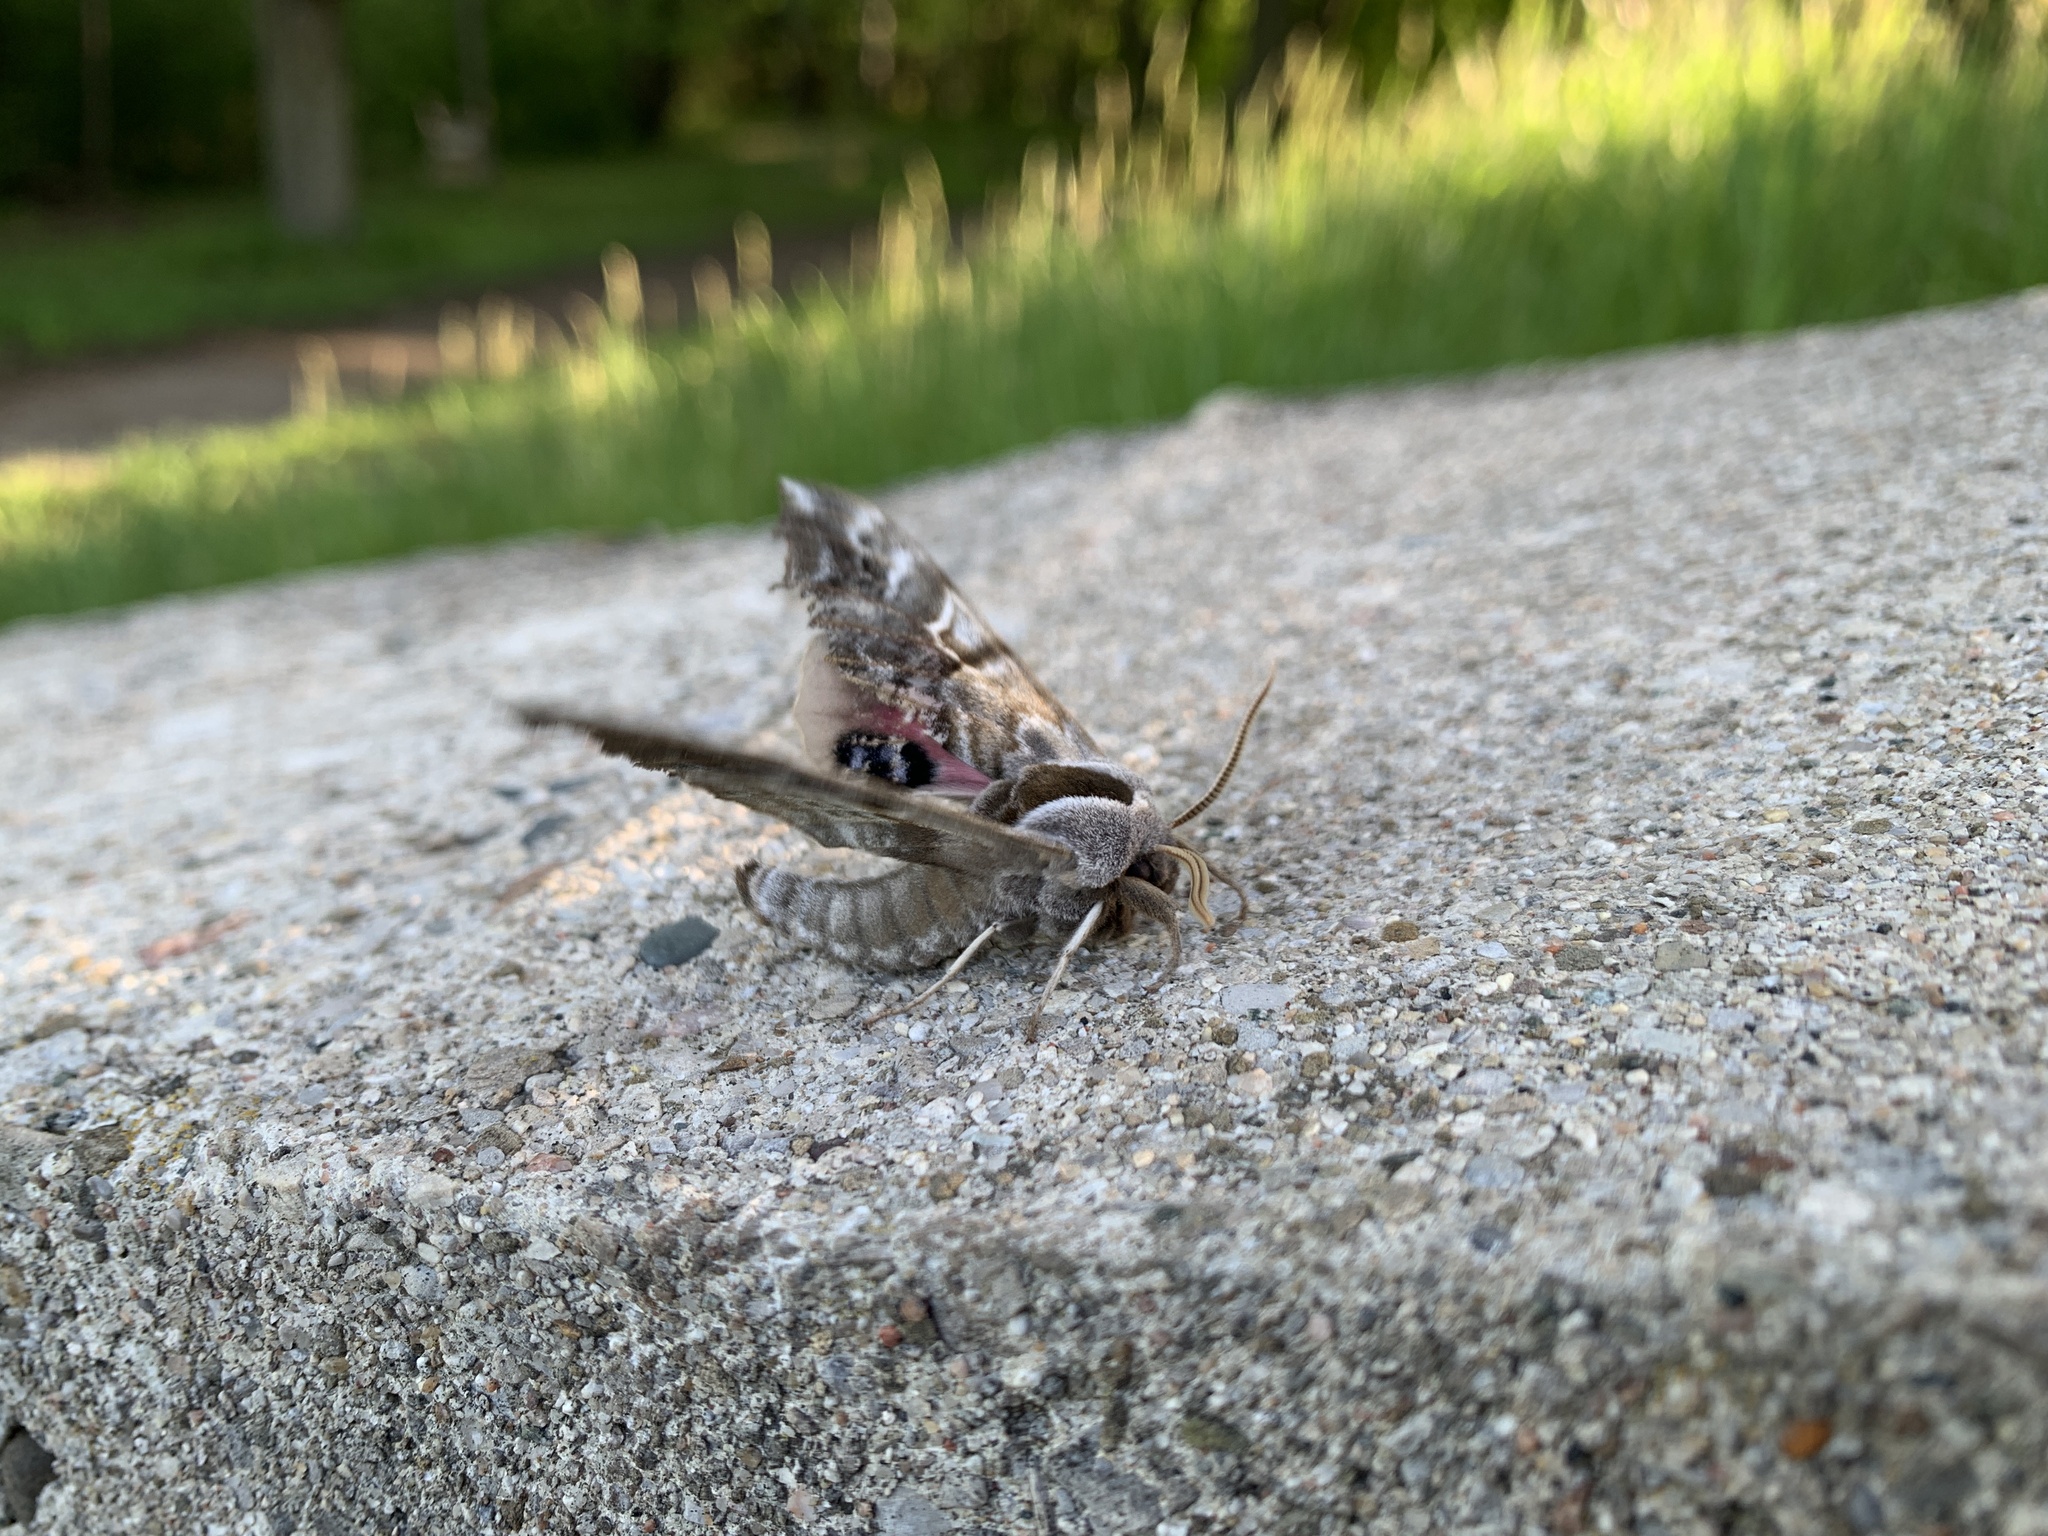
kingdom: Animalia
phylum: Arthropoda
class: Insecta
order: Lepidoptera
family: Sphingidae
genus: Smerinthus
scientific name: Smerinthus cerisyi
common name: Cerisy's sphinx moth
